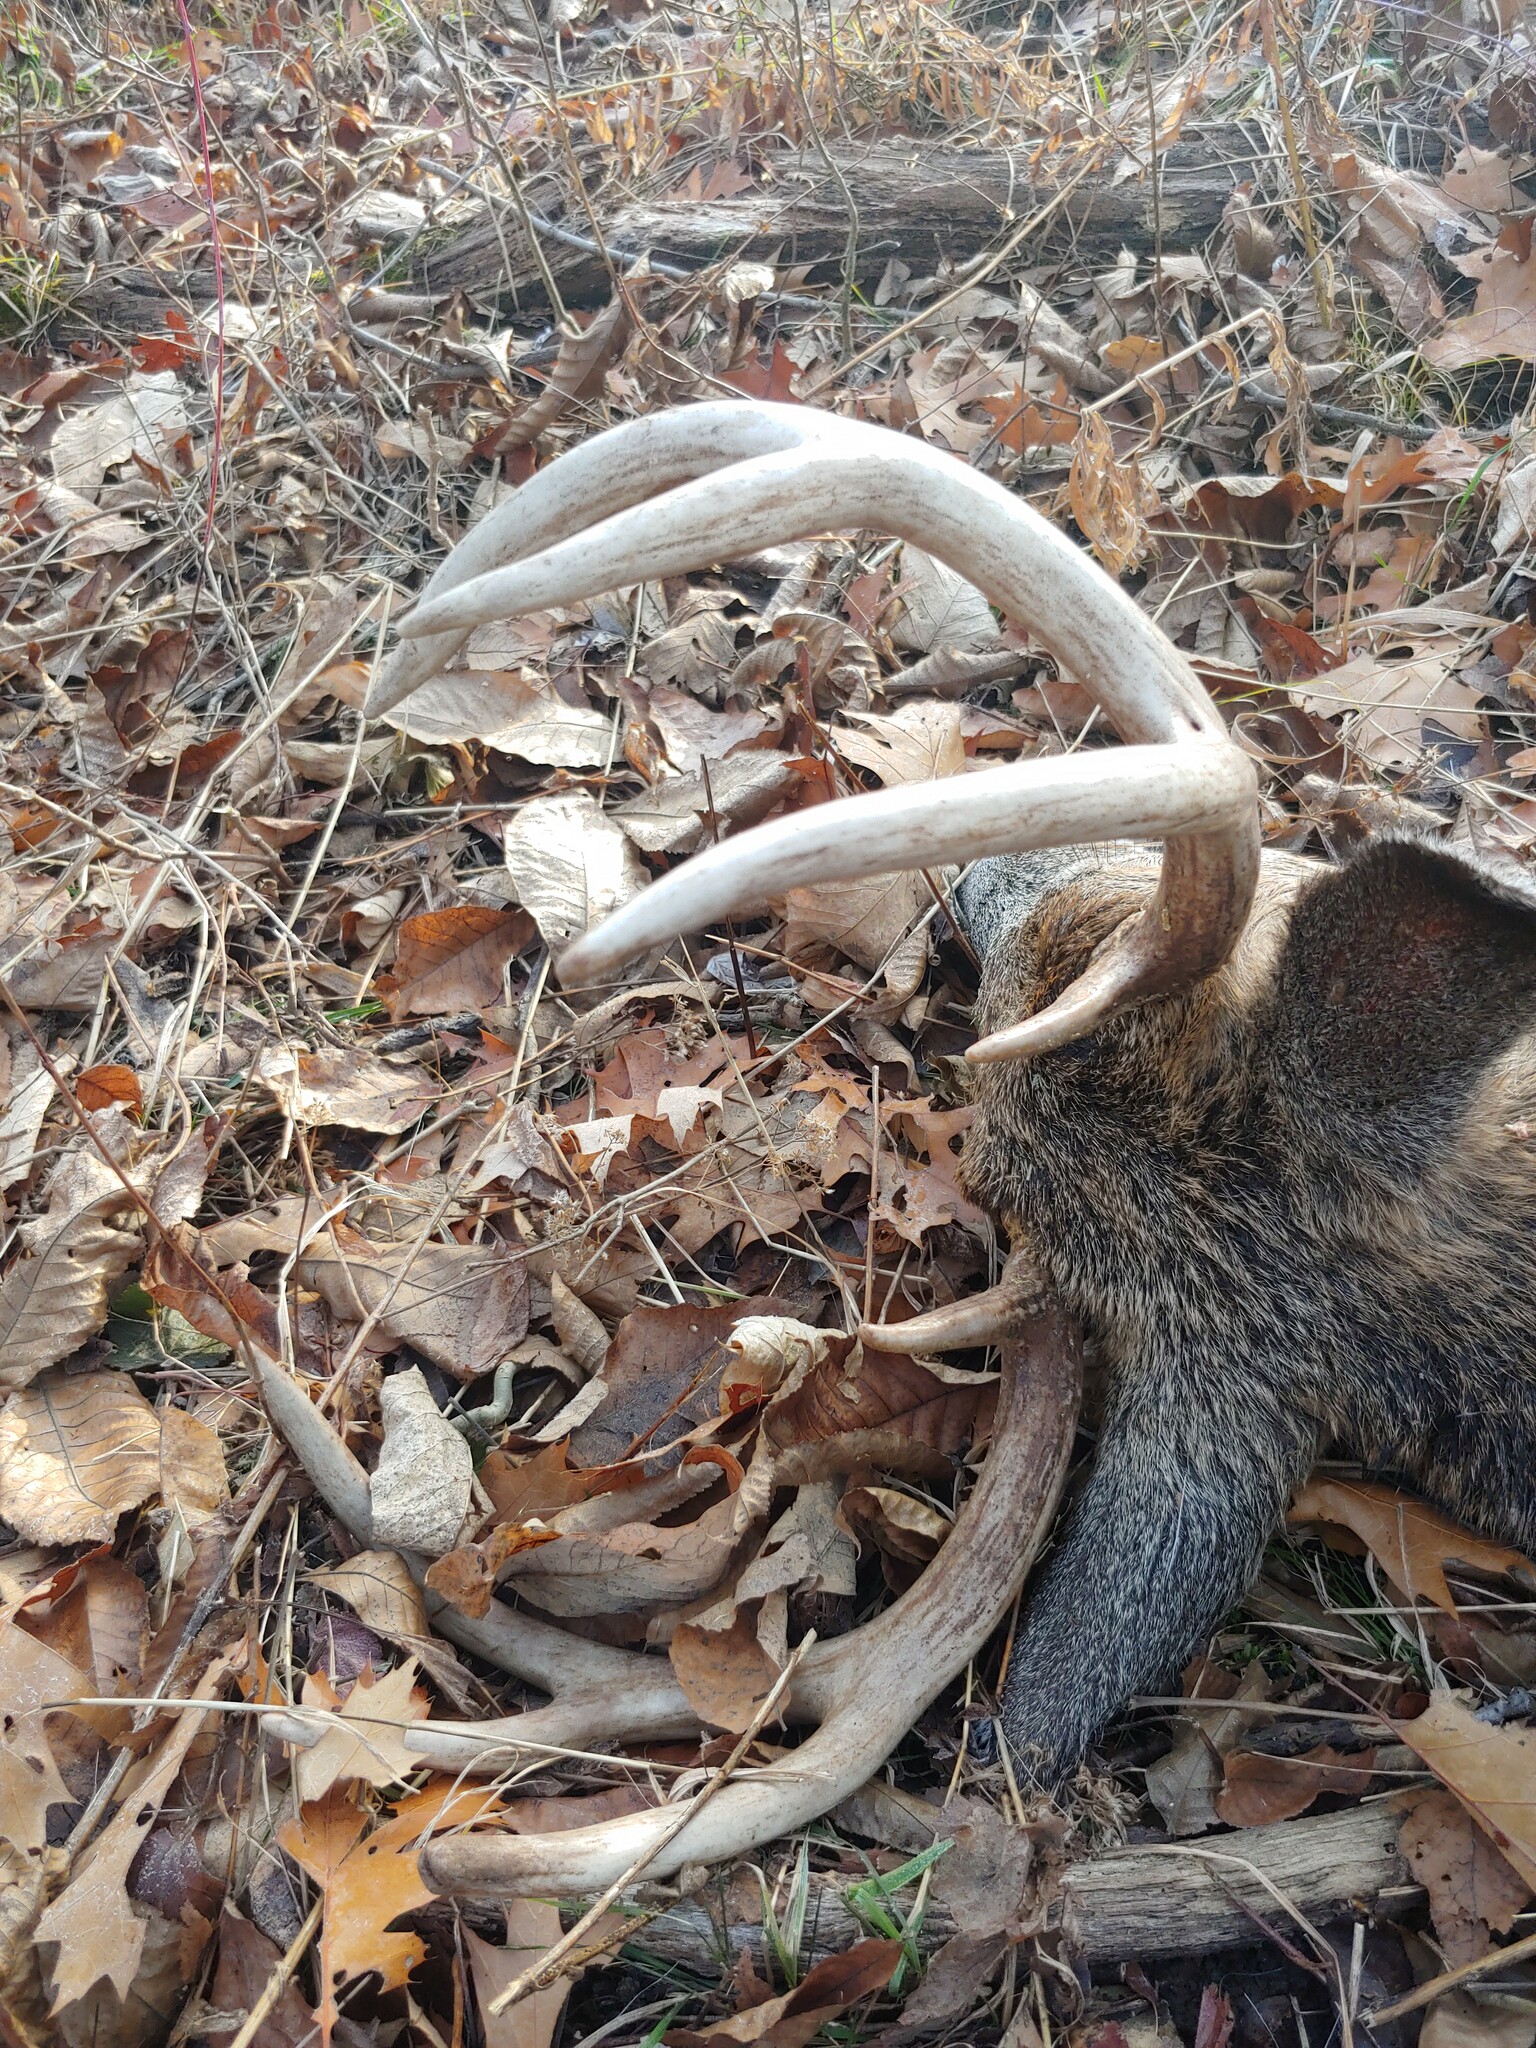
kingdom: Animalia
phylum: Chordata
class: Mammalia
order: Artiodactyla
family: Cervidae
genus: Odocoileus
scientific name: Odocoileus virginianus
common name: White-tailed deer
